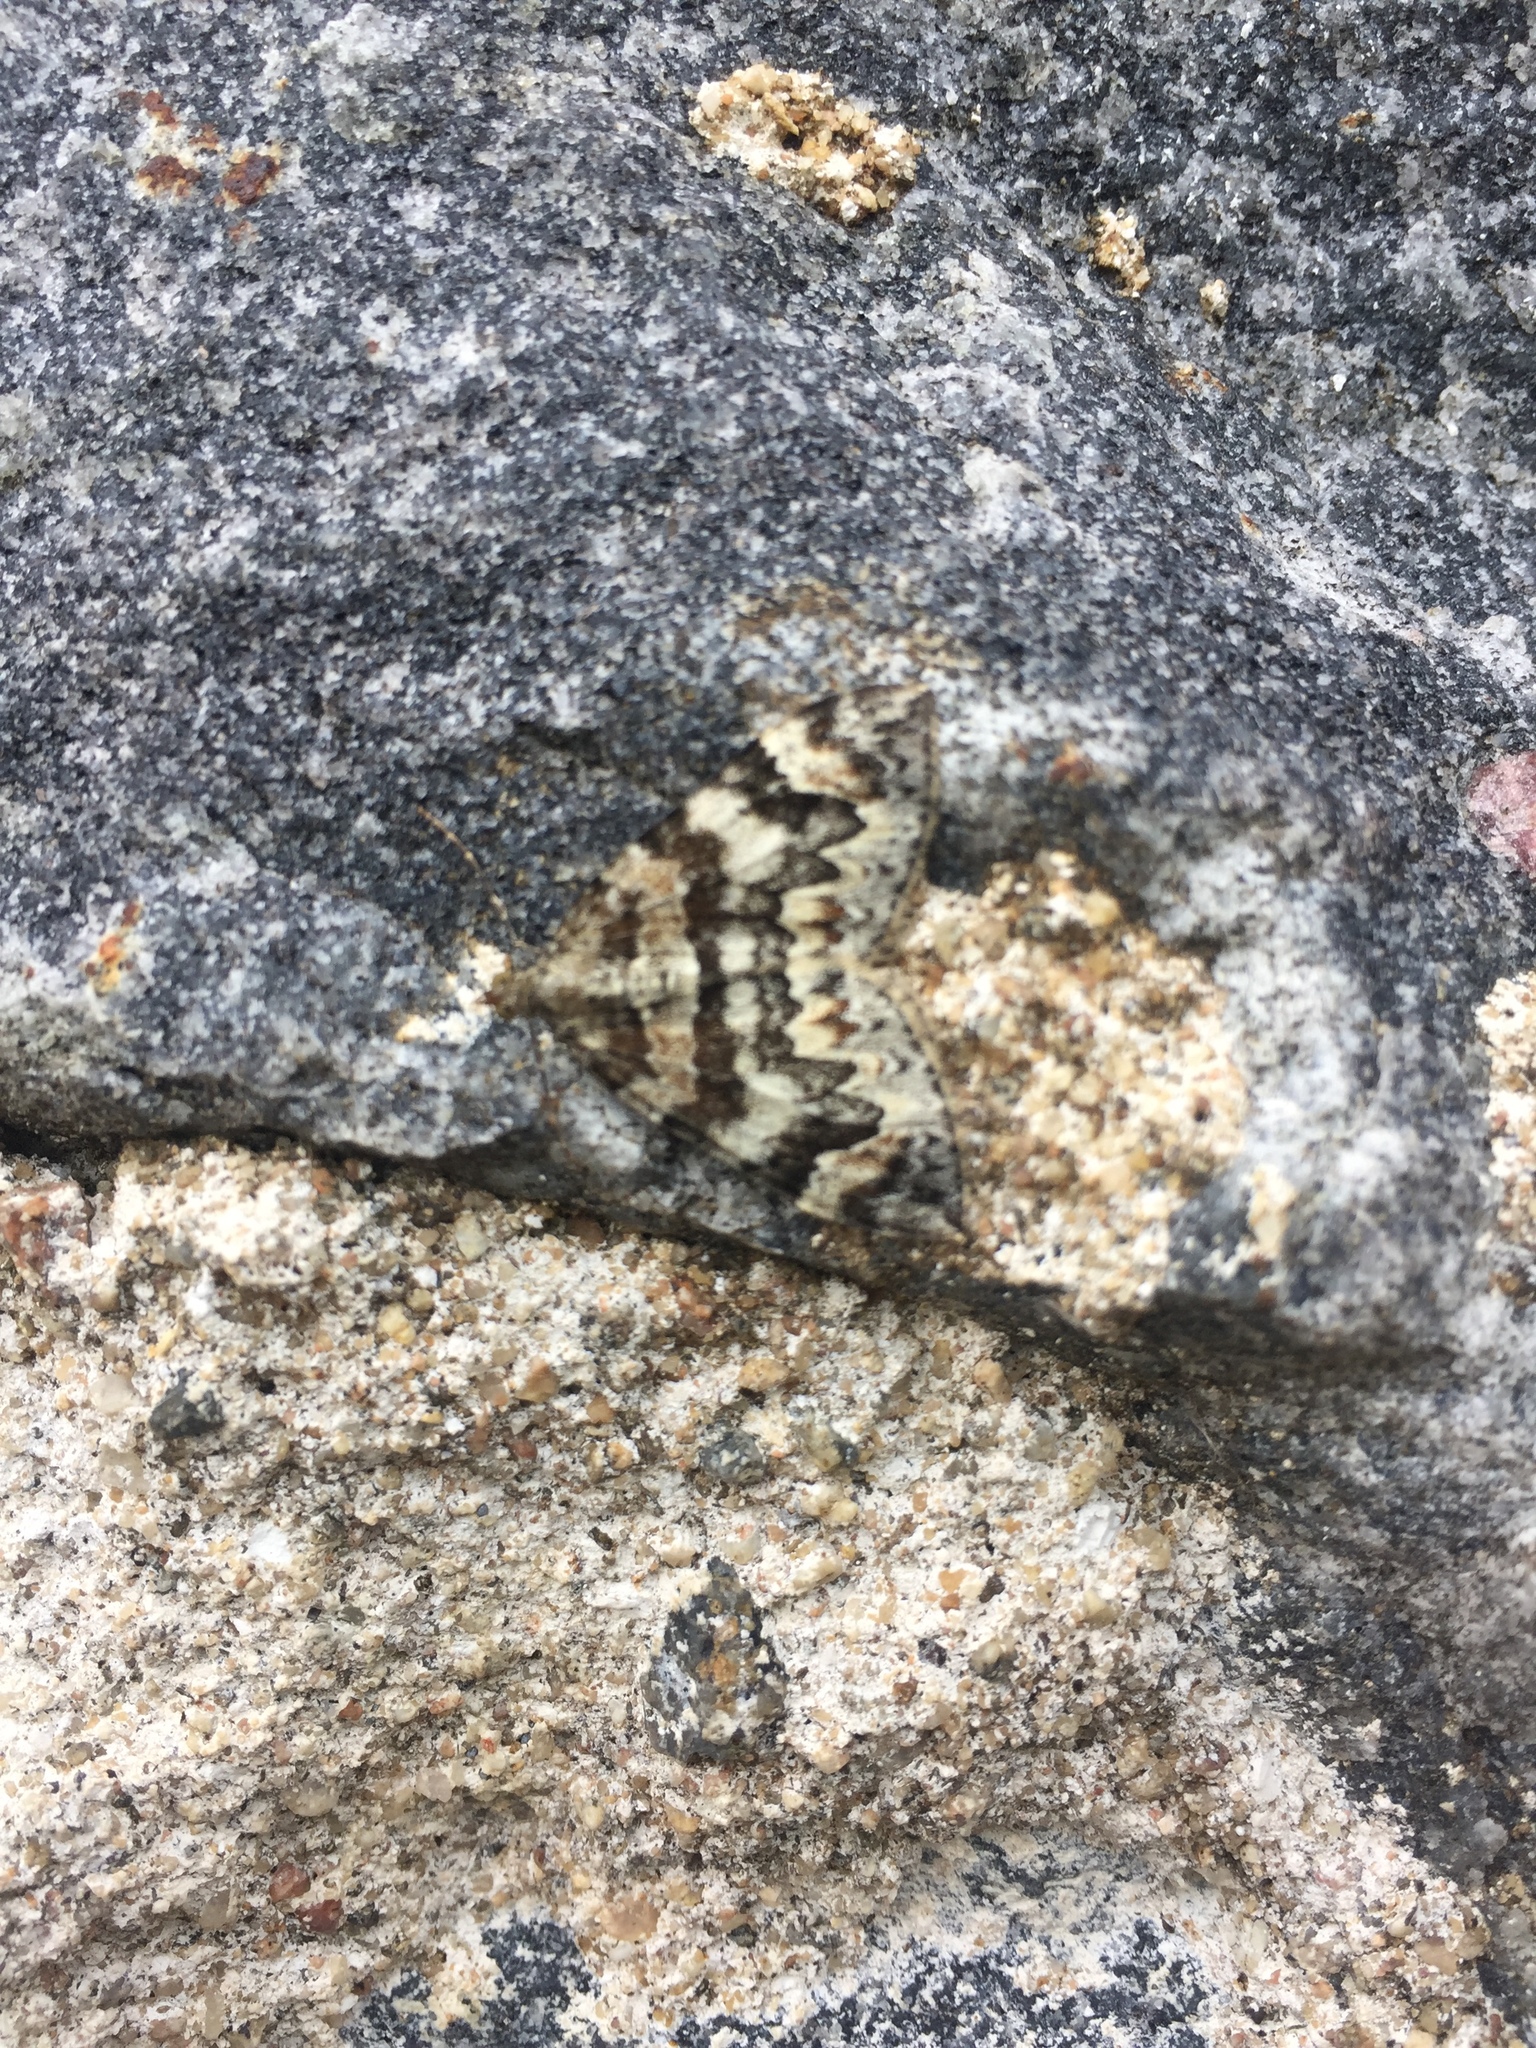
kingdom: Animalia
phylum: Arthropoda
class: Insecta
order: Lepidoptera
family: Geometridae
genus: Dysstroma
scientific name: Dysstroma citrata
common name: Dark marbled carpet
